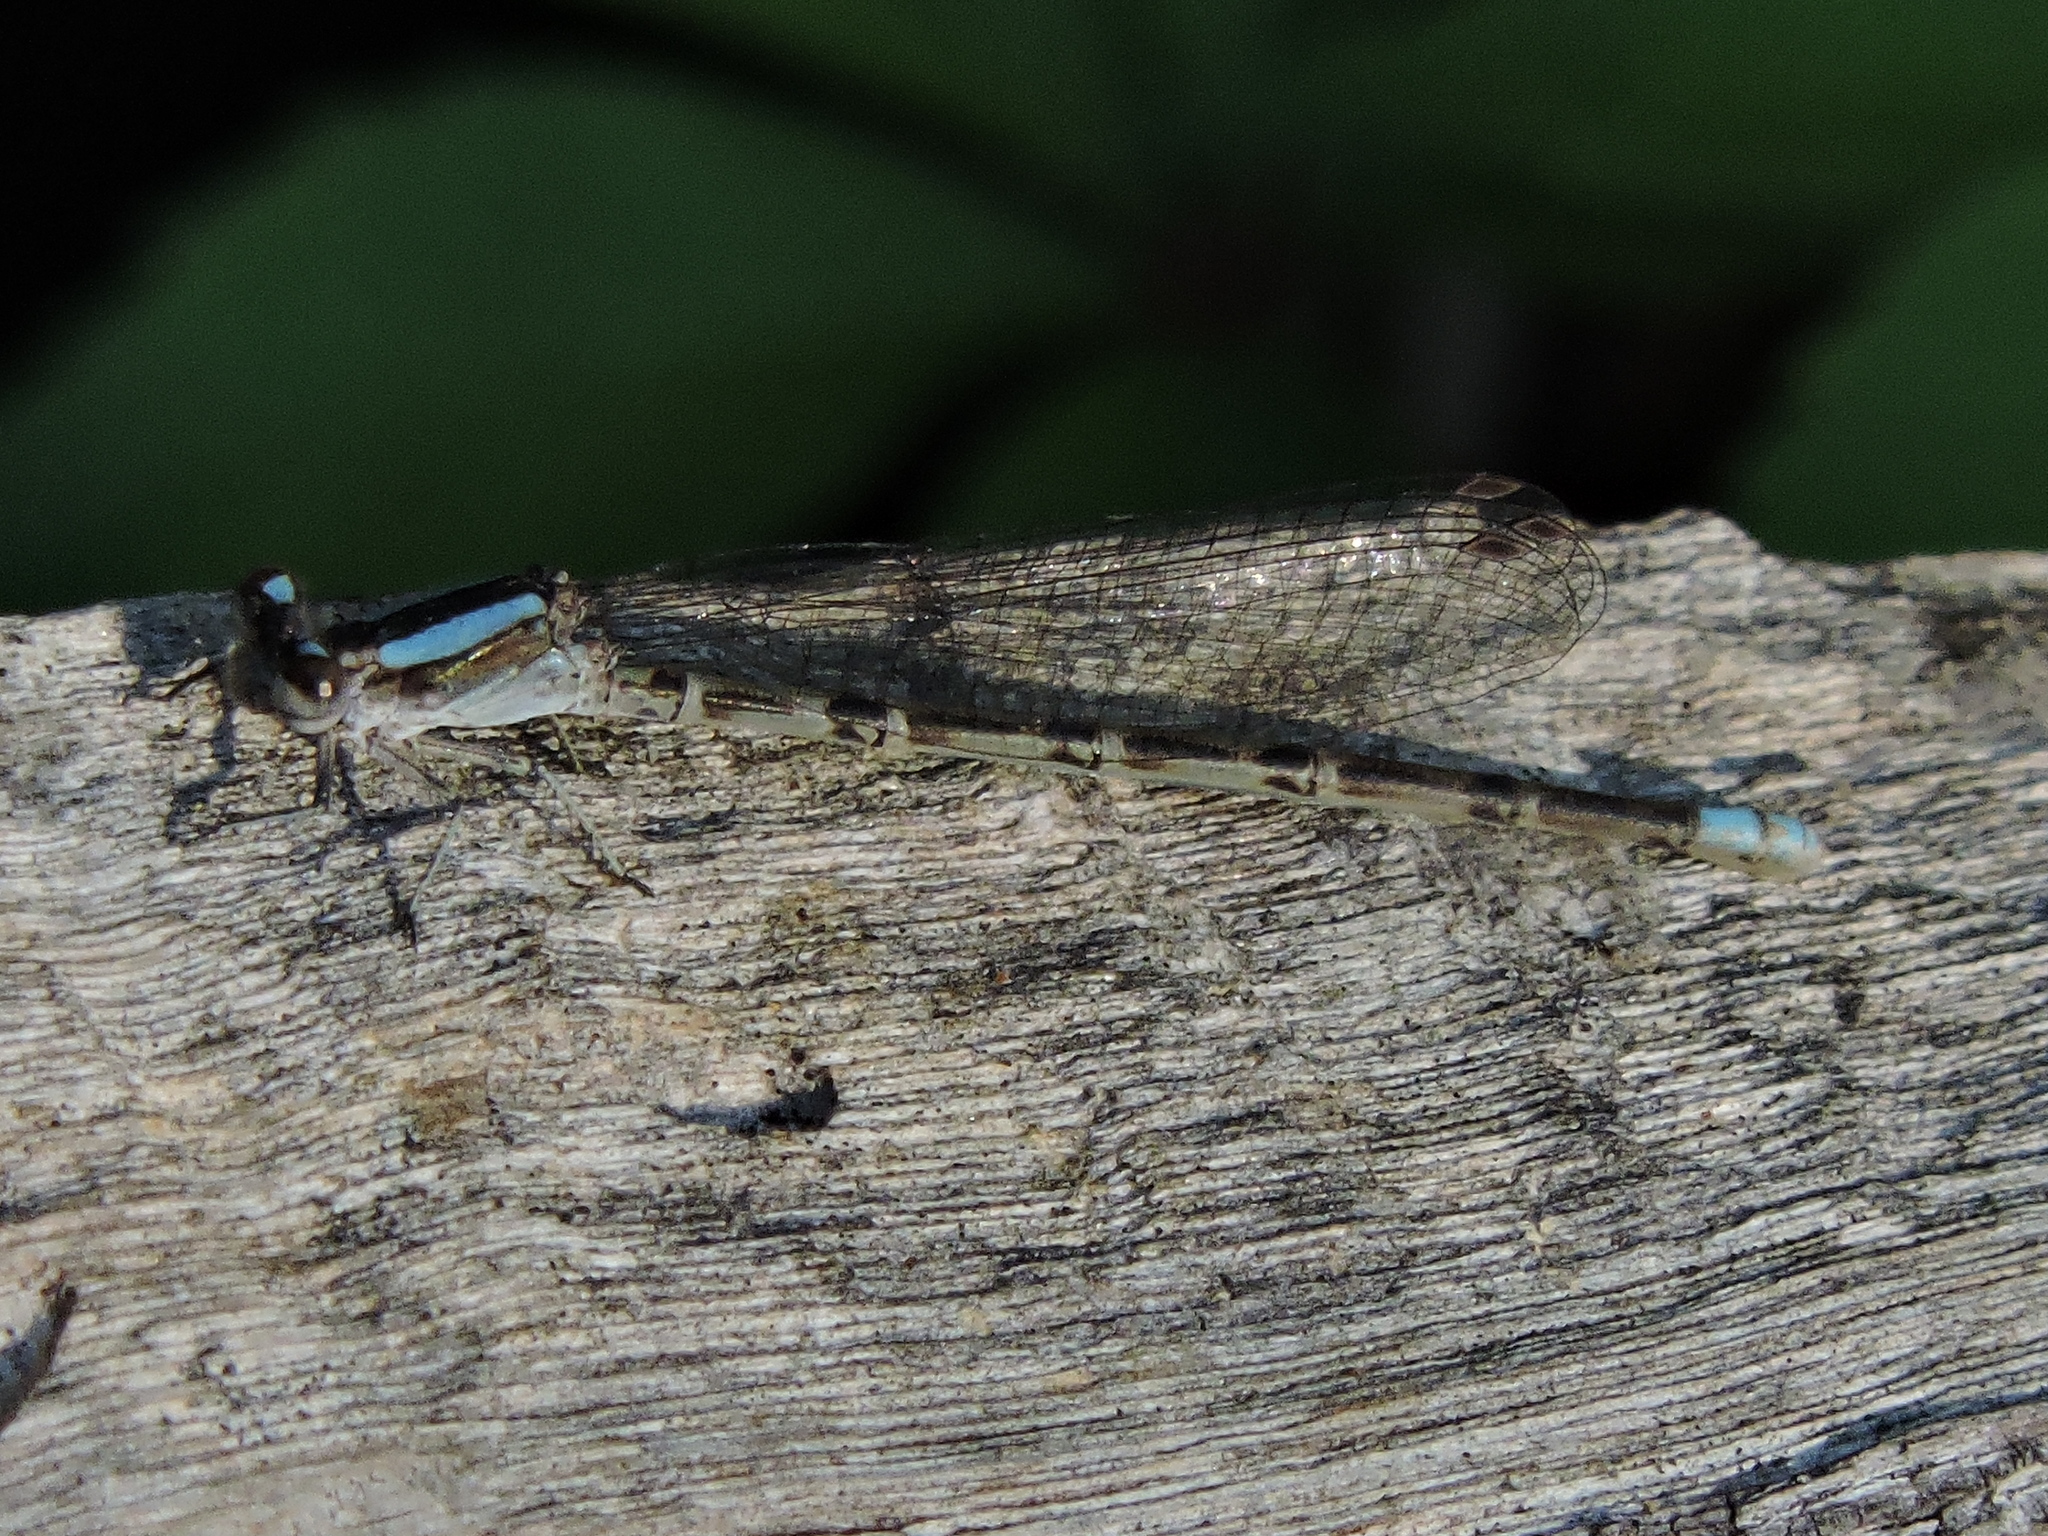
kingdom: Animalia
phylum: Arthropoda
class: Insecta
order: Odonata
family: Coenagrionidae
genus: Argia
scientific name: Argia immunda
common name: Kiowa dancer
